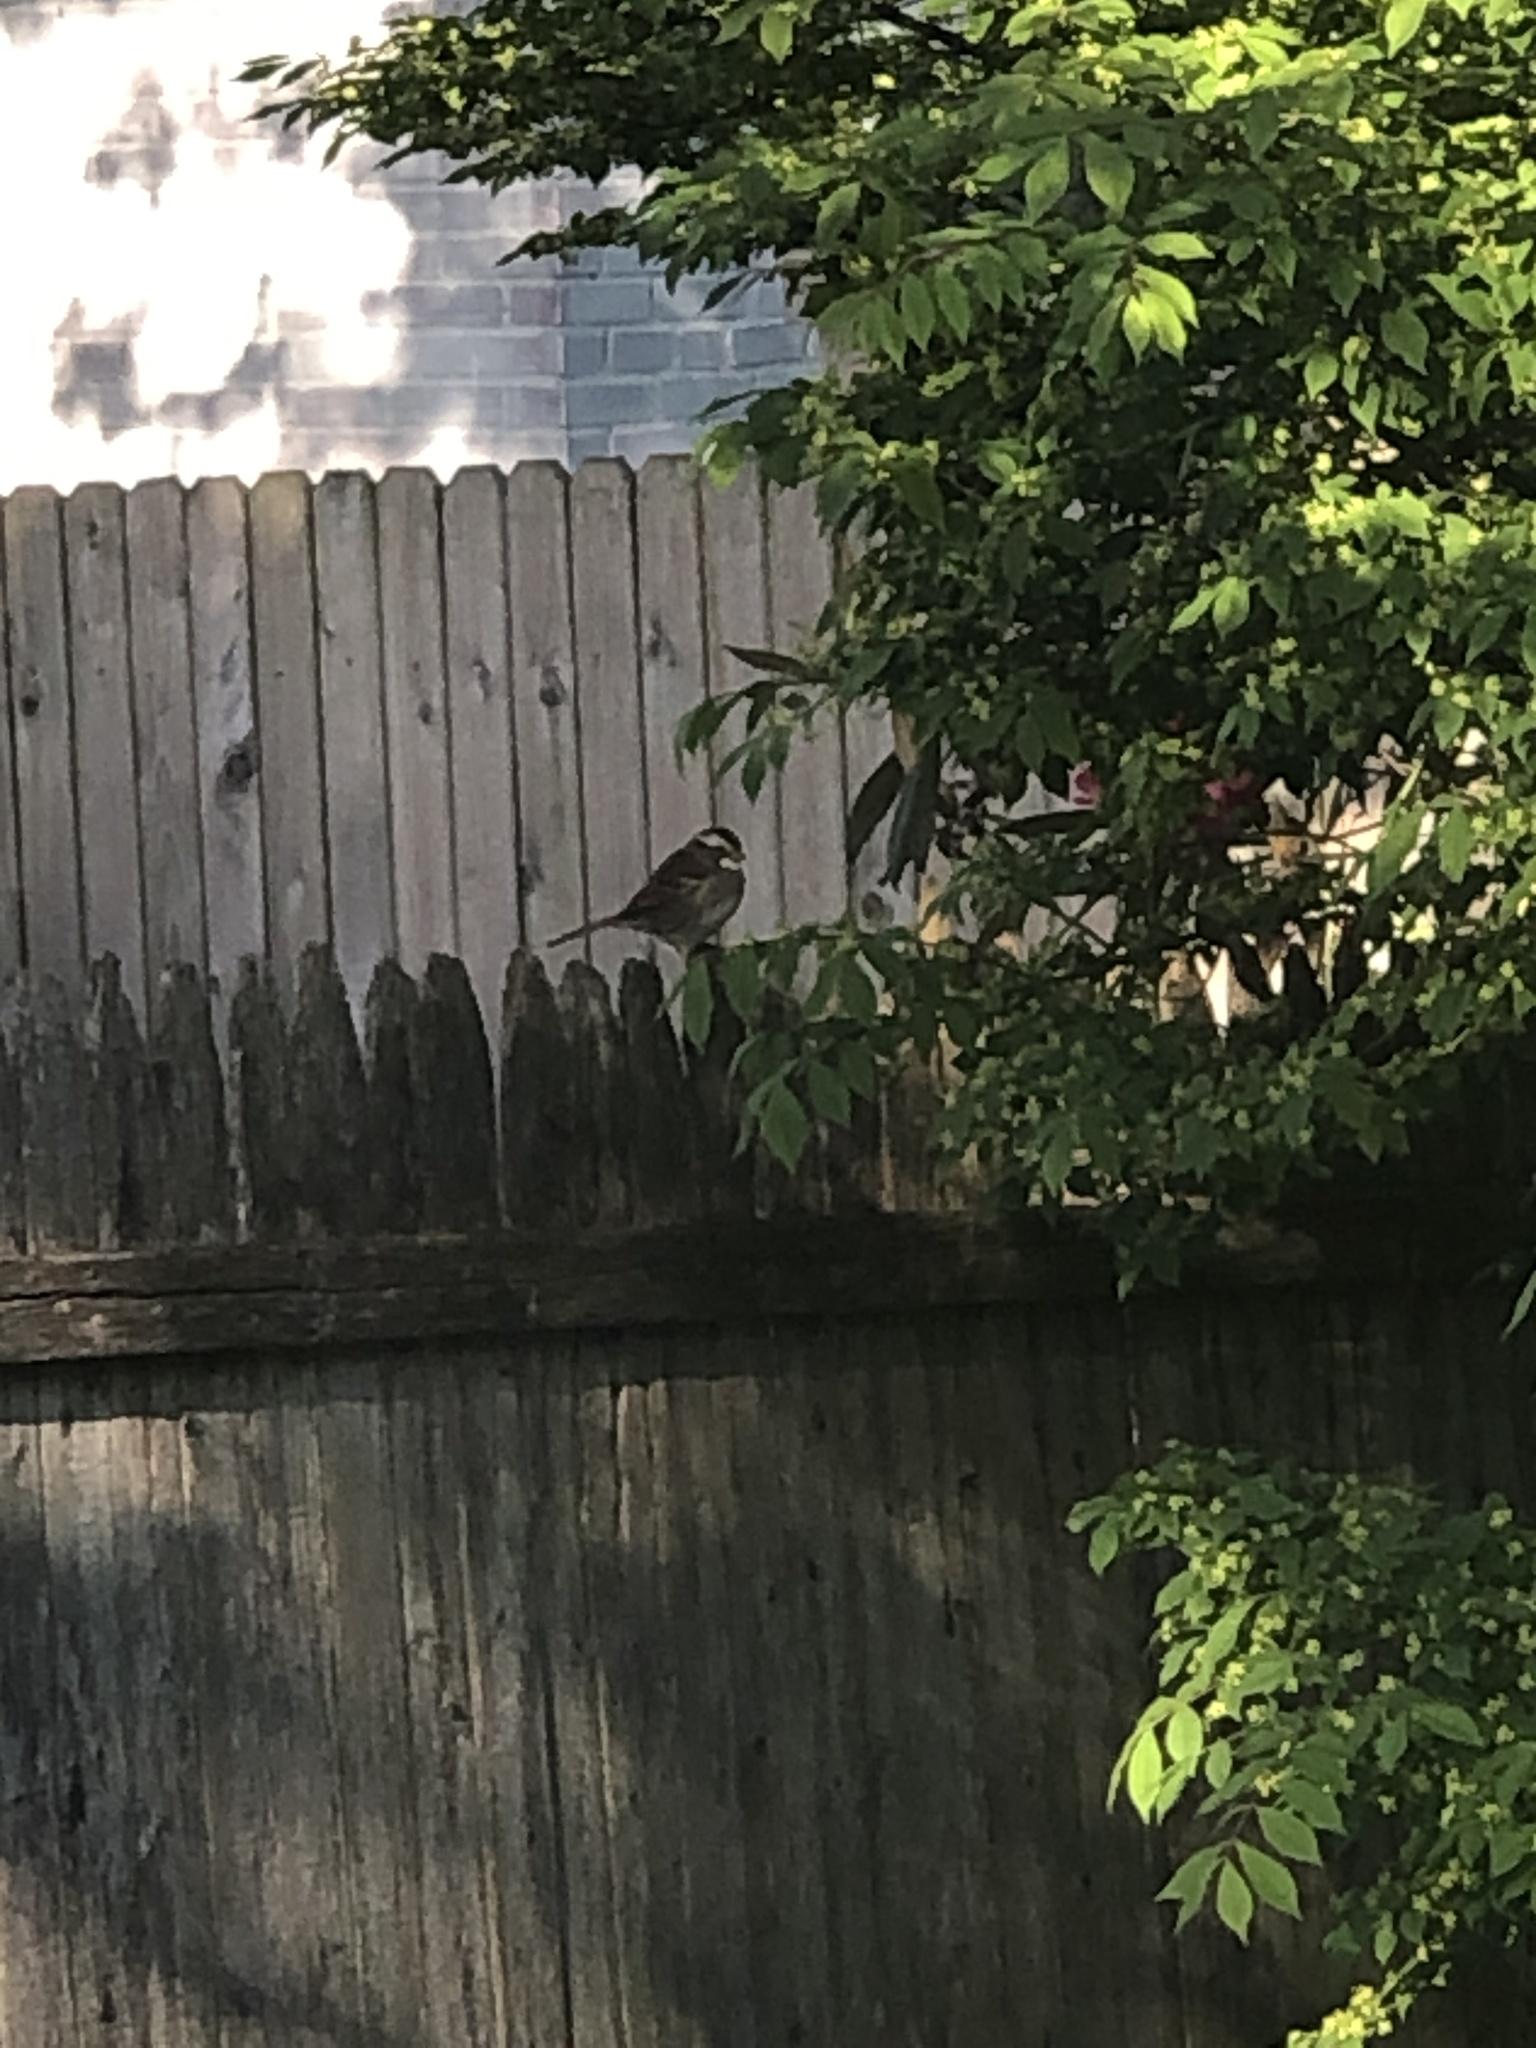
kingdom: Animalia
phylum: Chordata
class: Aves
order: Passeriformes
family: Passerellidae
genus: Zonotrichia
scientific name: Zonotrichia albicollis
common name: White-throated sparrow
